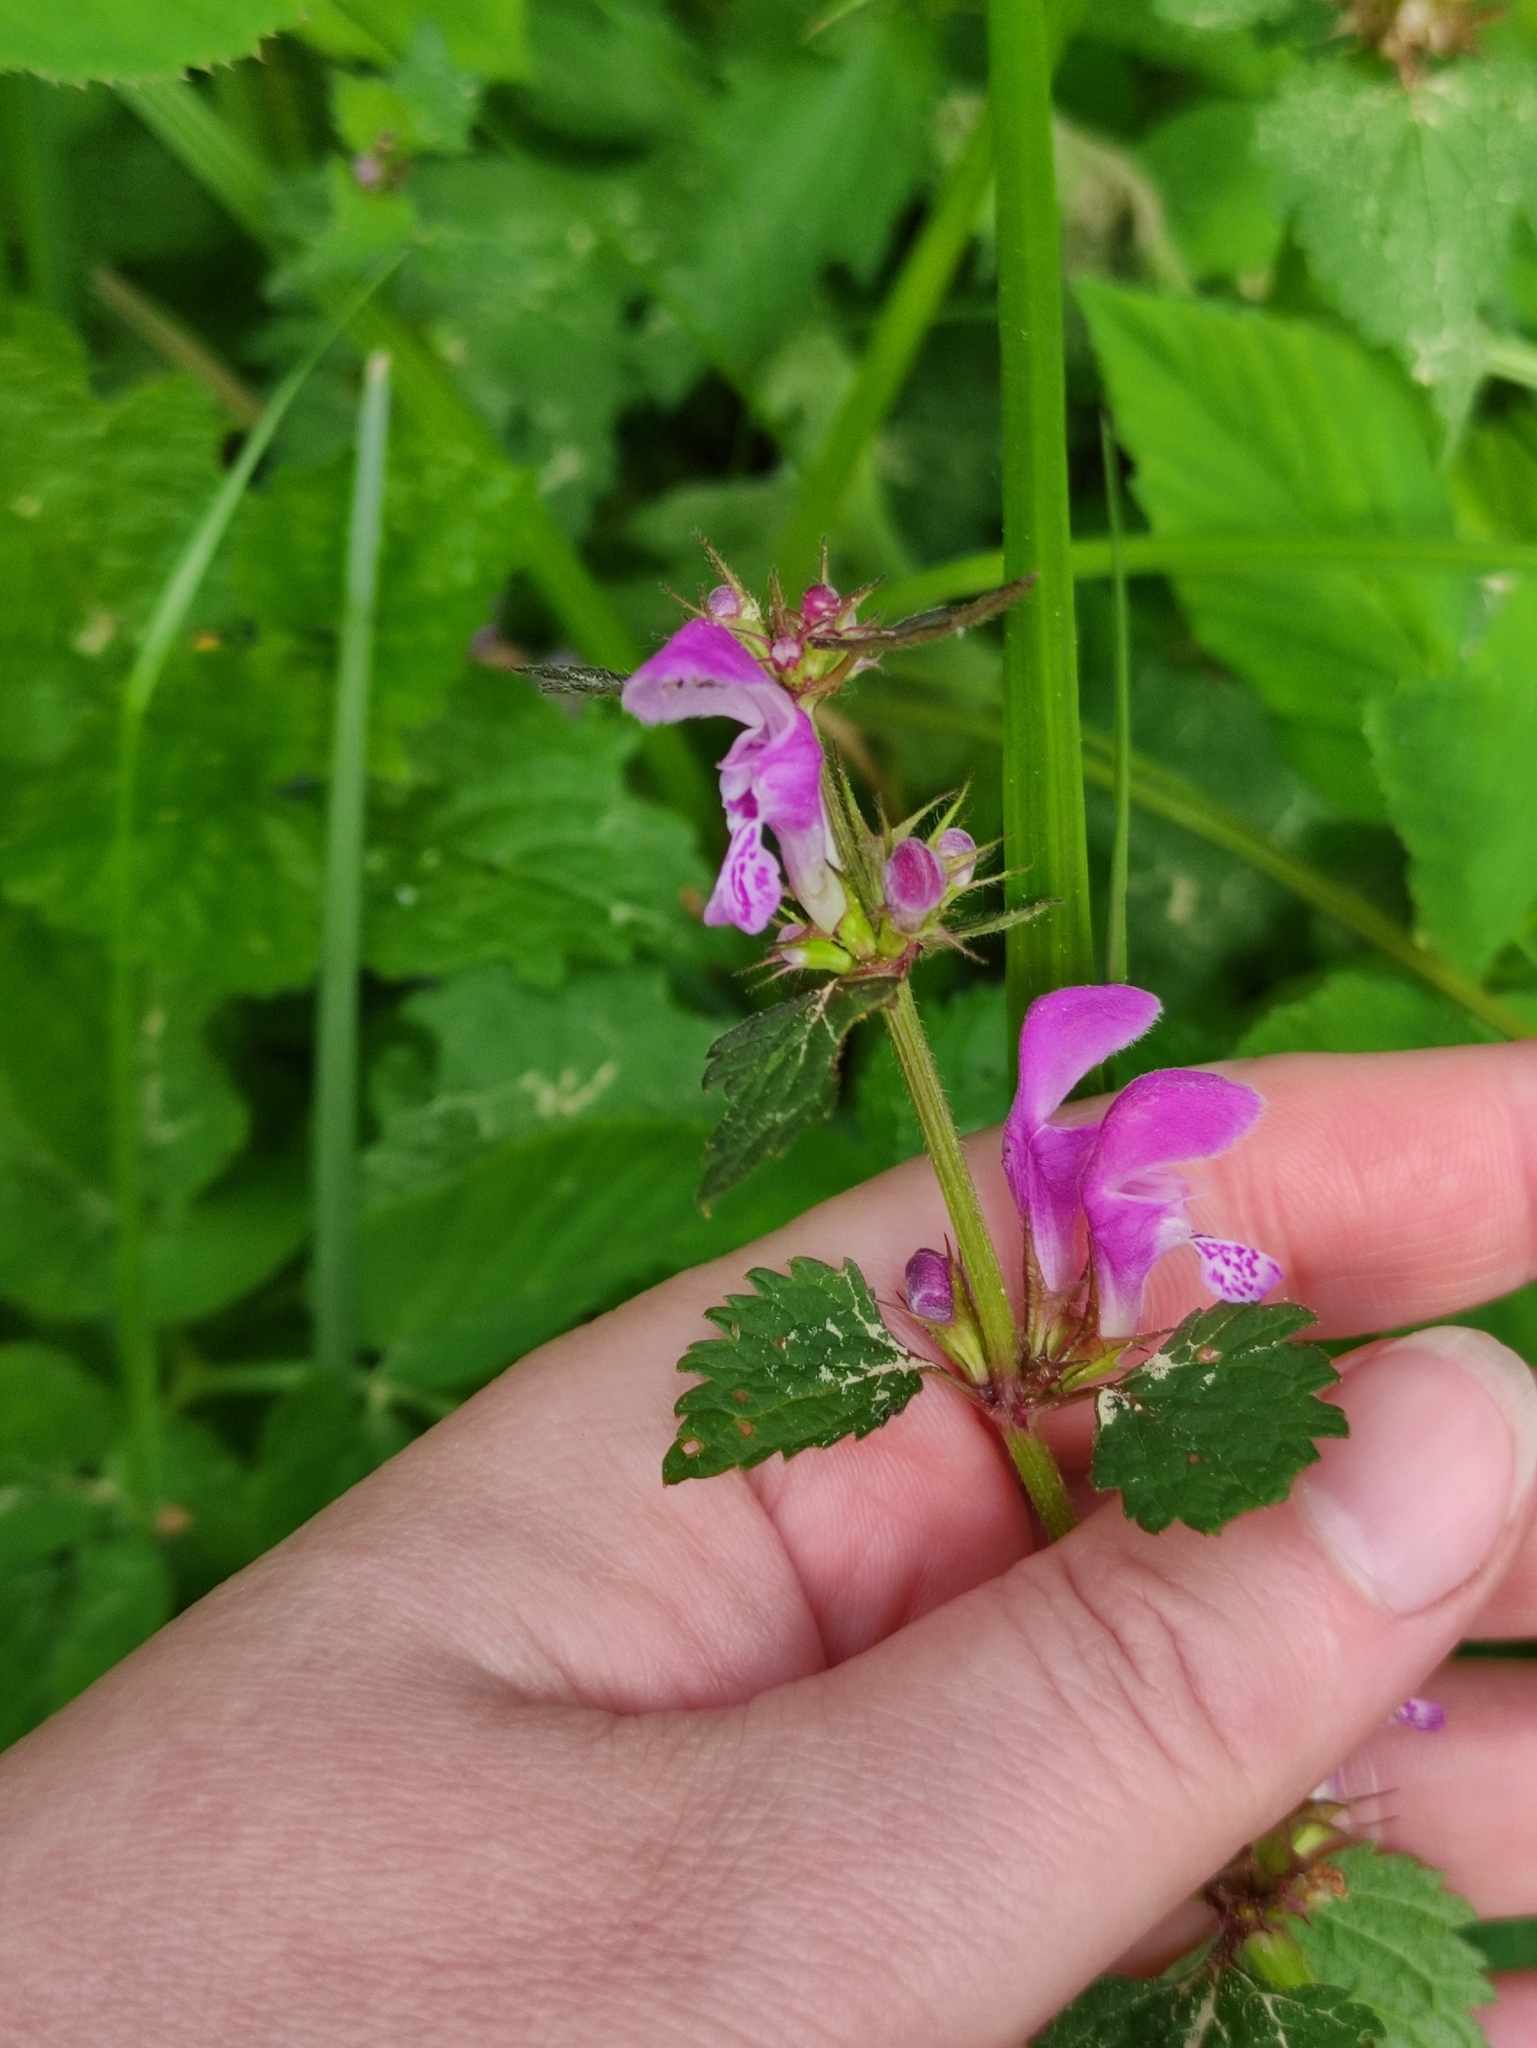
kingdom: Plantae
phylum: Tracheophyta
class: Magnoliopsida
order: Lamiales
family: Lamiaceae
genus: Lamium
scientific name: Lamium maculatum
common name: Spotted dead-nettle
